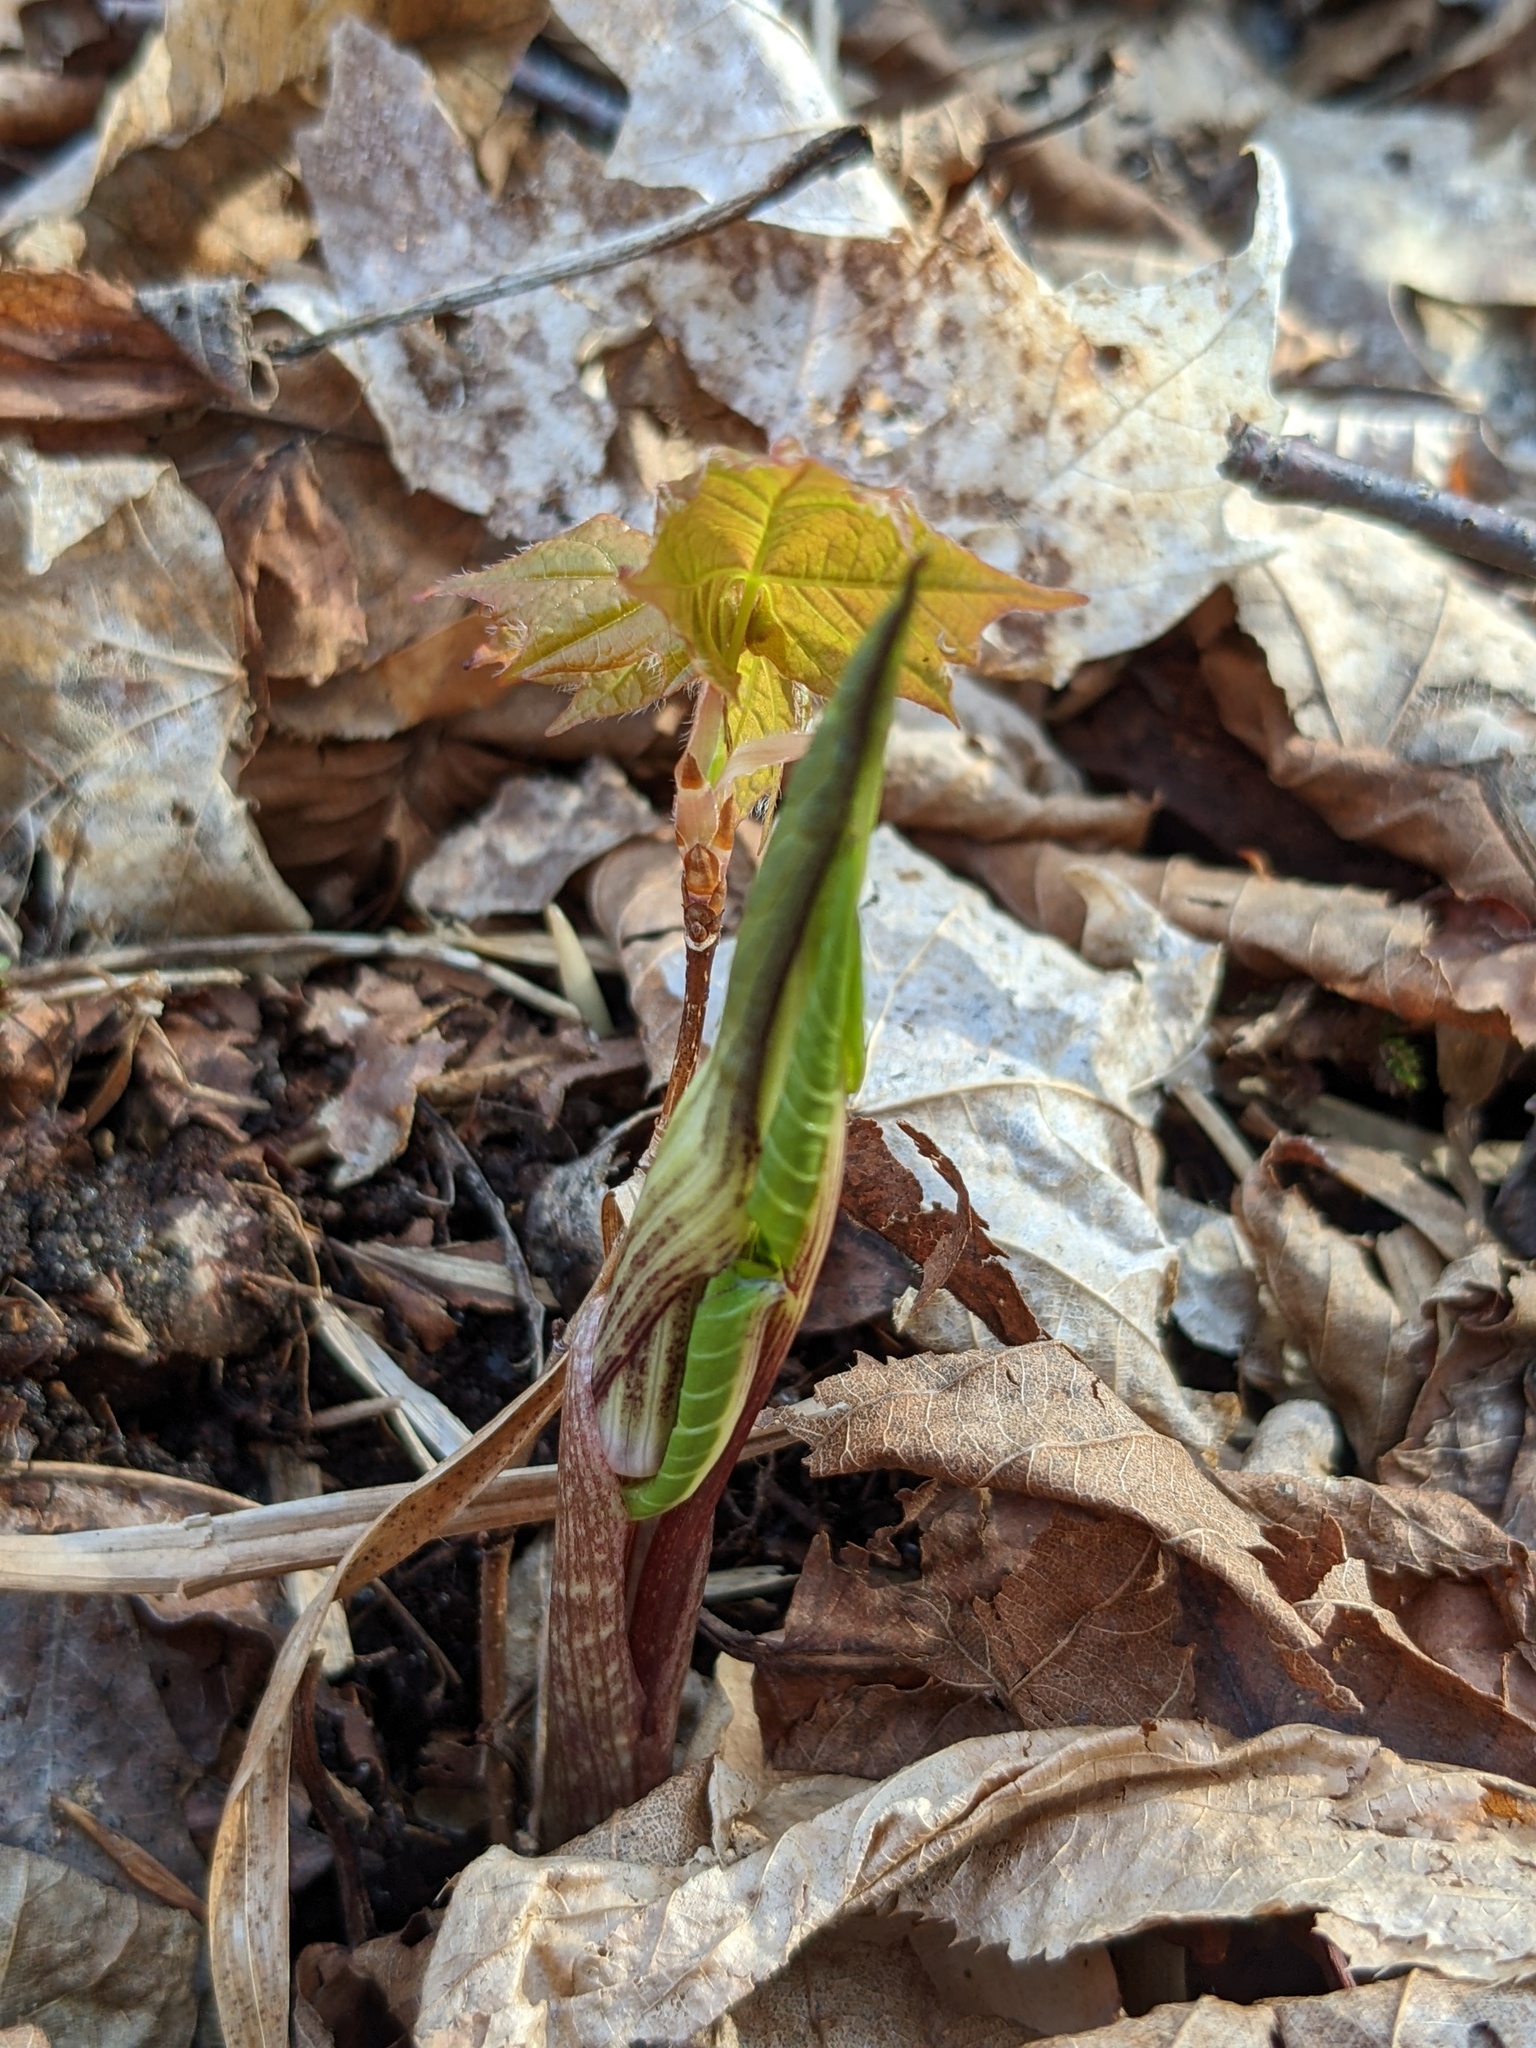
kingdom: Plantae
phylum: Tracheophyta
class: Liliopsida
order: Alismatales
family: Araceae
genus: Arisaema
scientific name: Arisaema triphyllum
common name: Jack-in-the-pulpit
